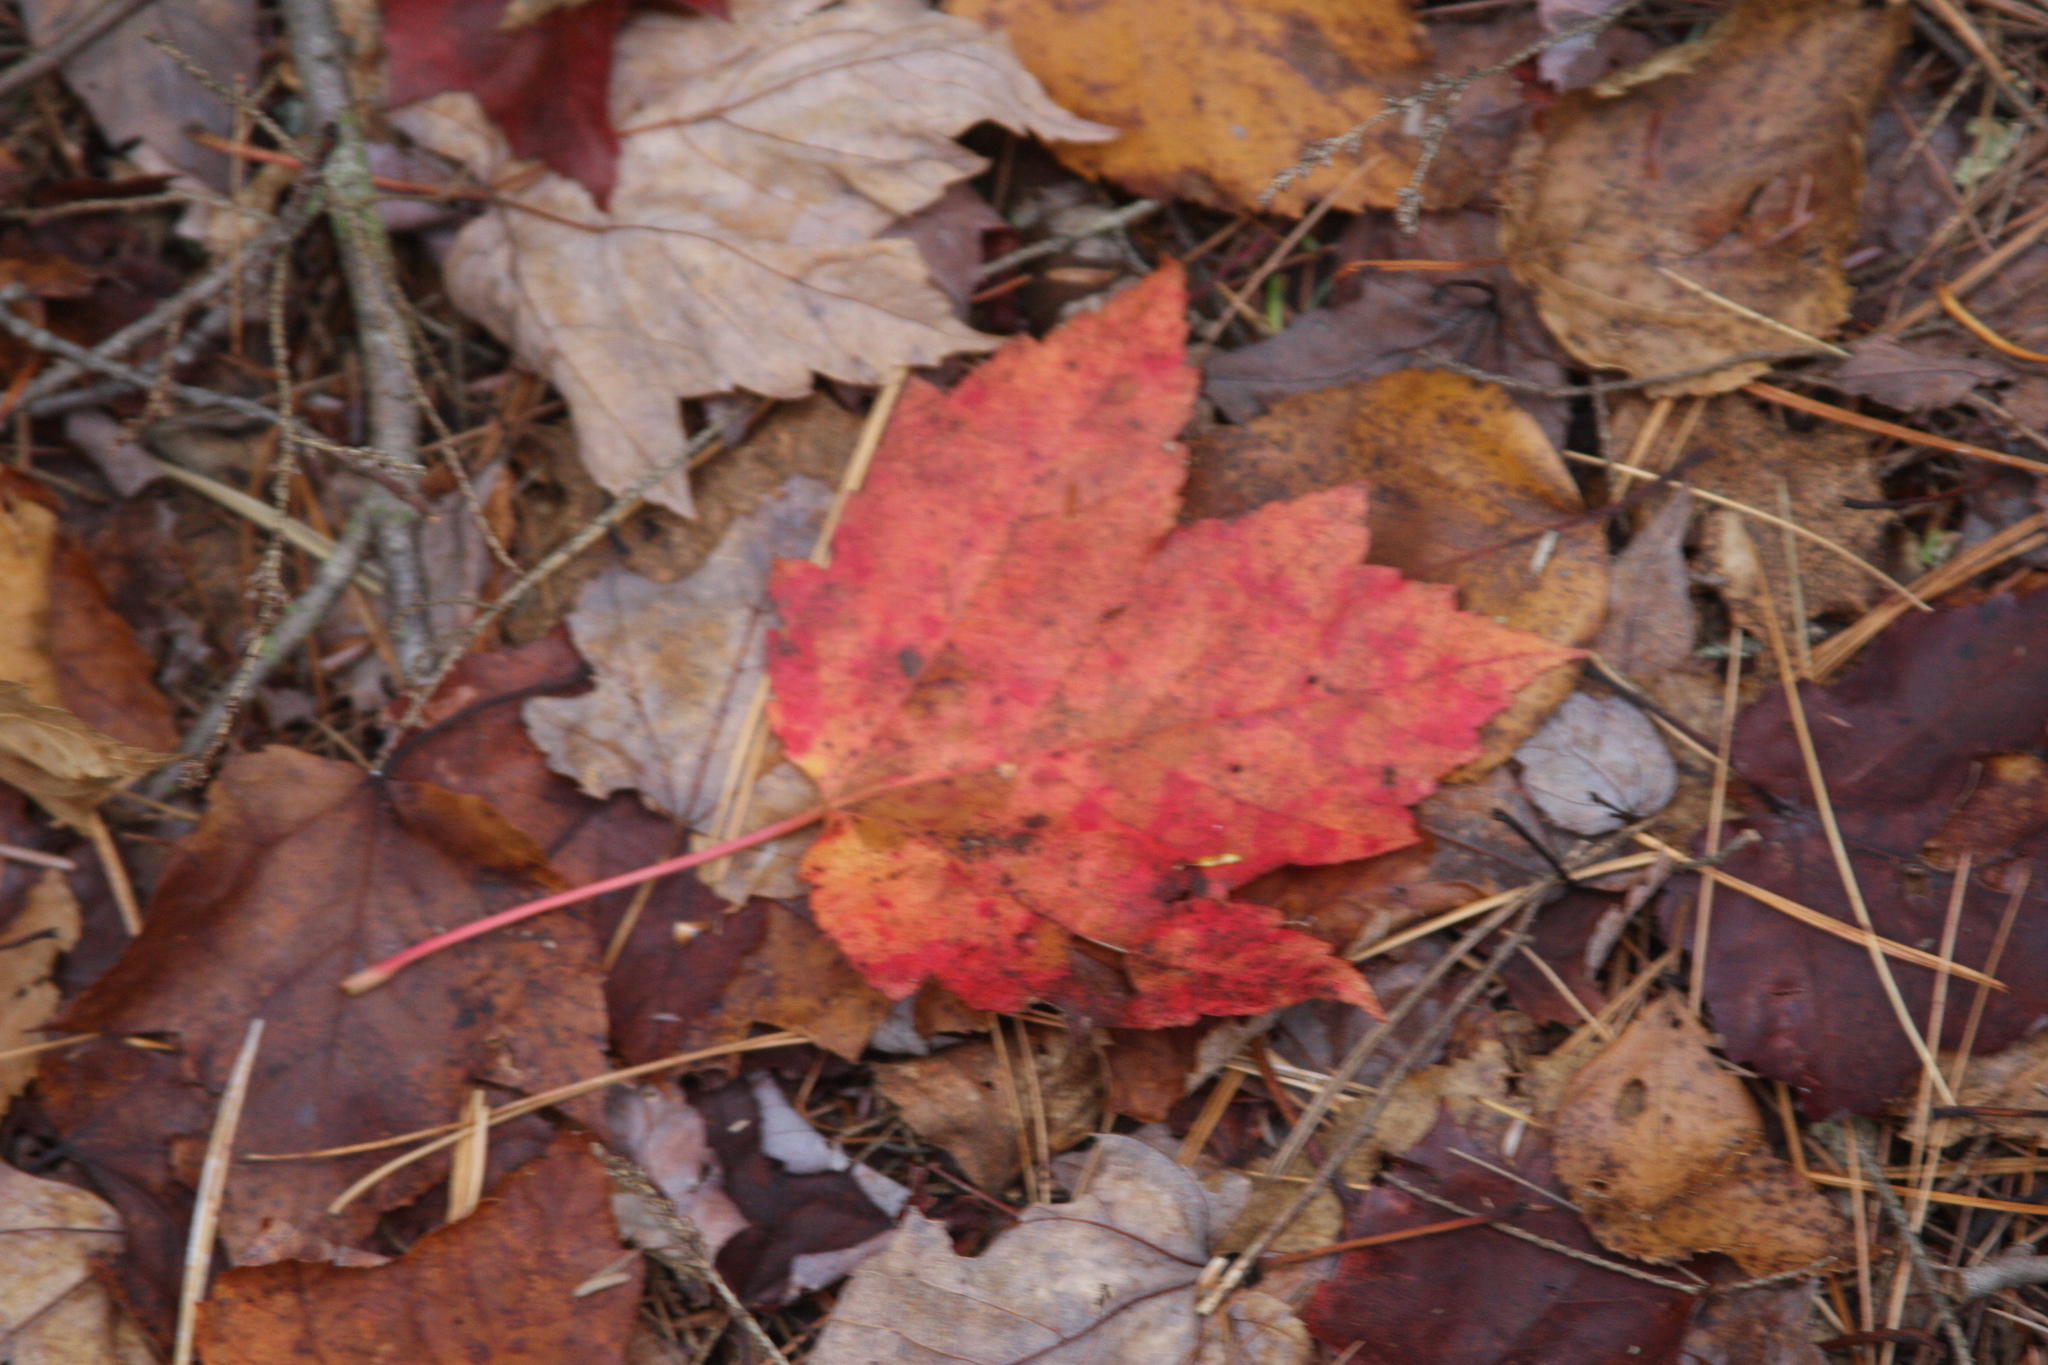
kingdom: Plantae
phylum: Tracheophyta
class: Magnoliopsida
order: Sapindales
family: Sapindaceae
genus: Acer
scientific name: Acer rubrum
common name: Red maple
